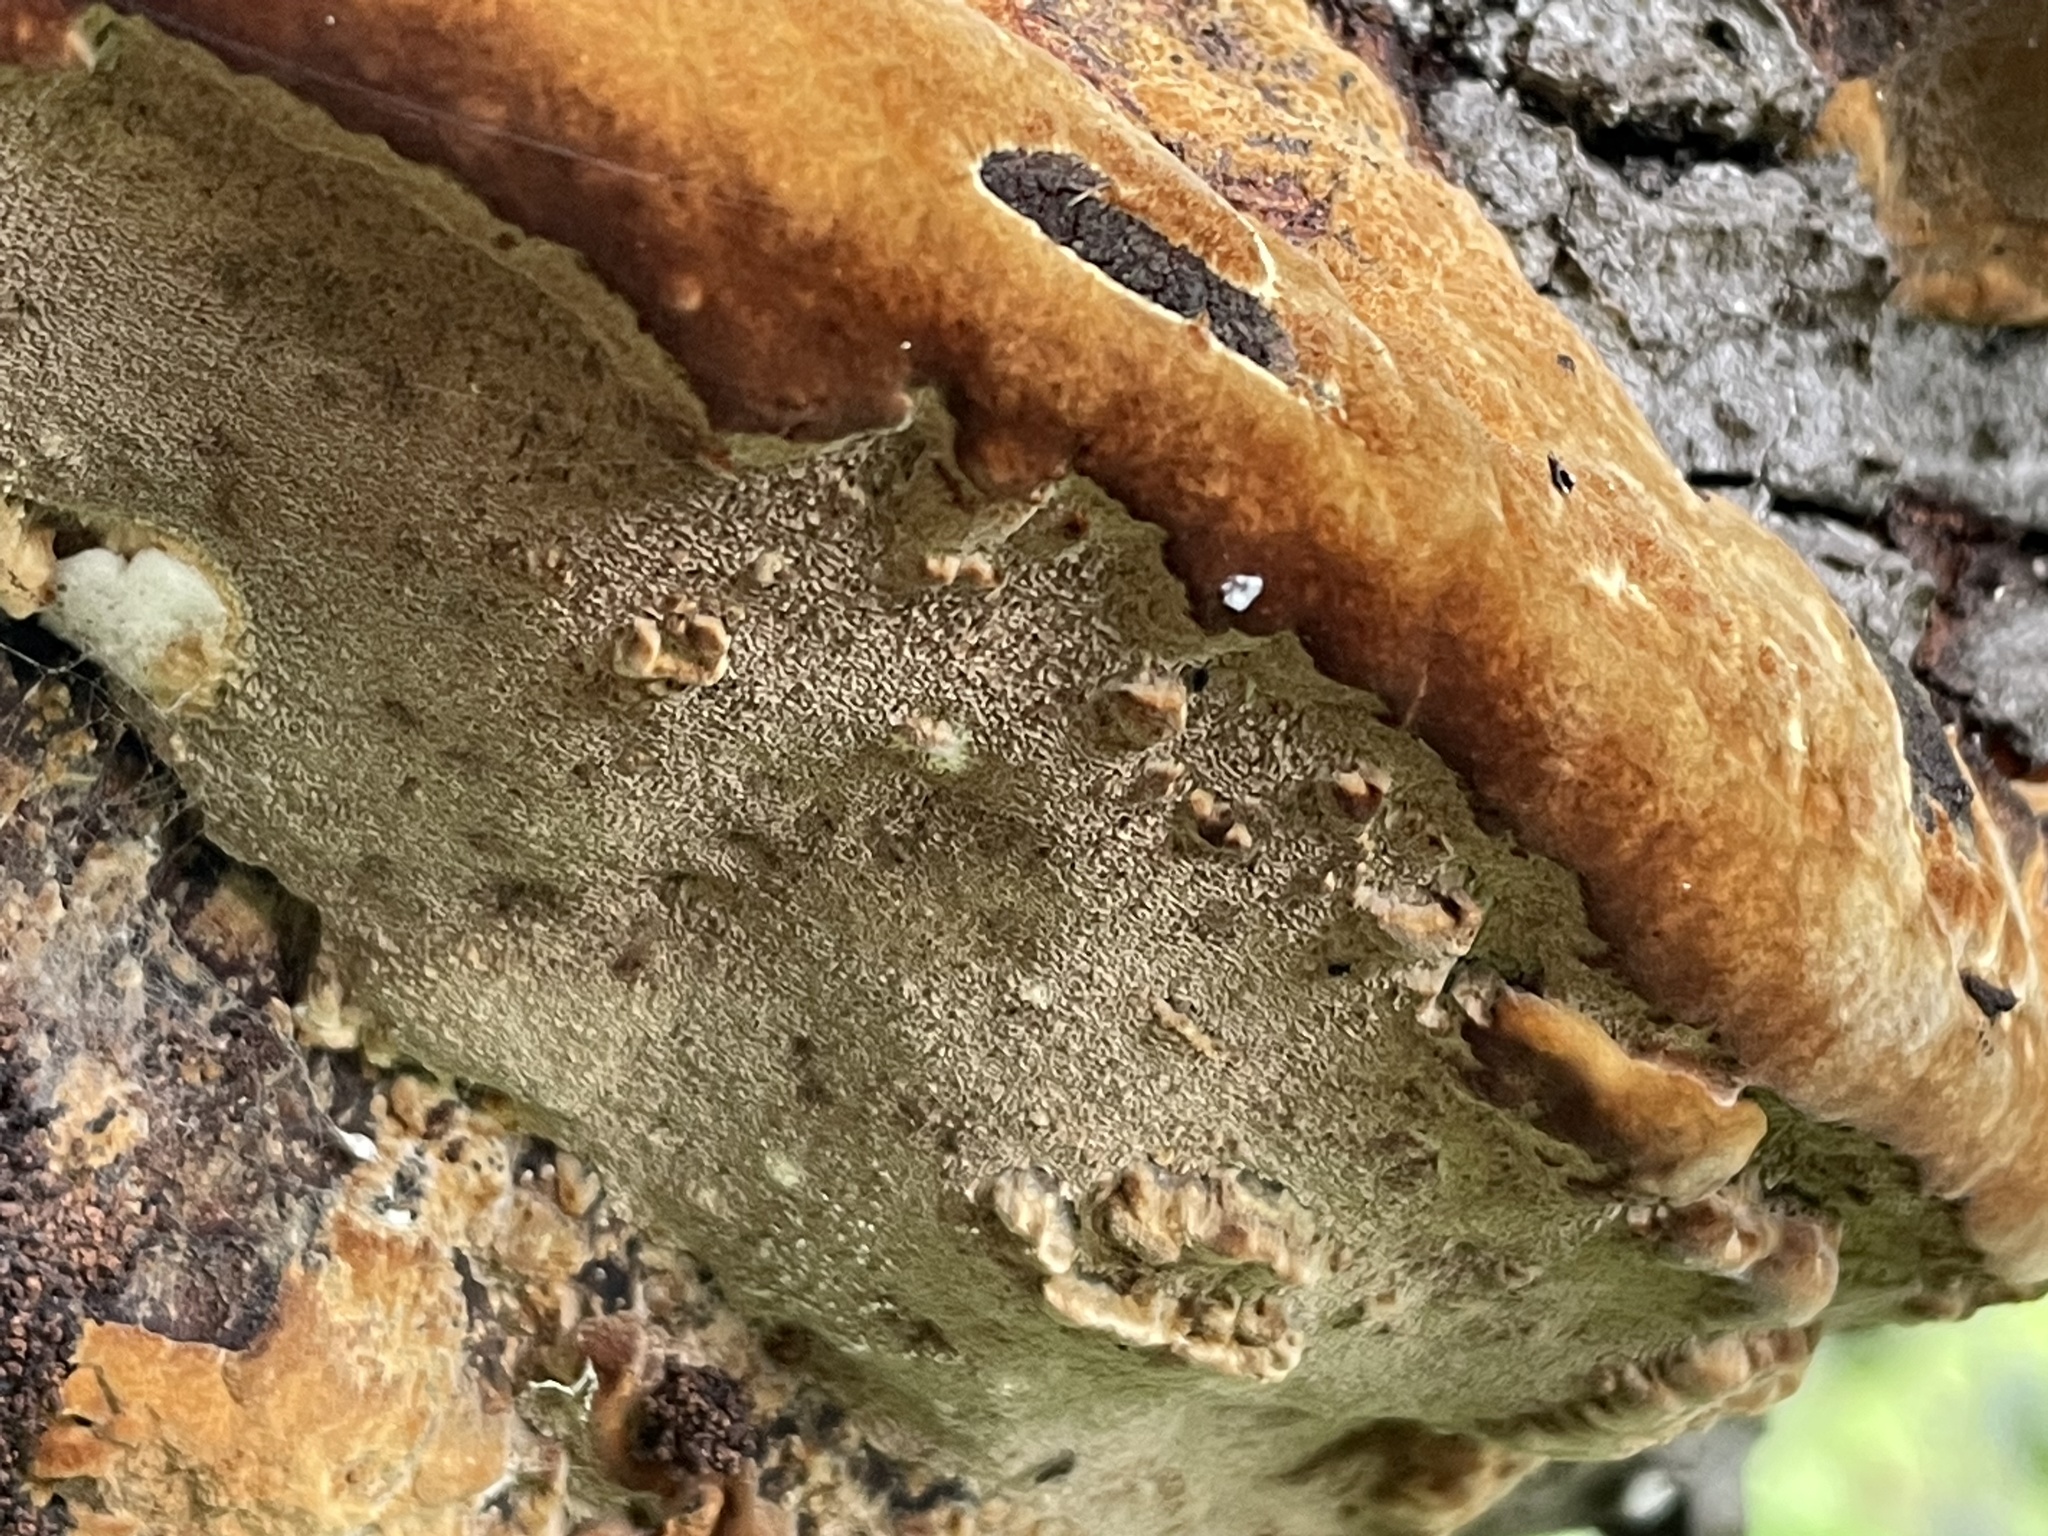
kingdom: Fungi
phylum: Basidiomycota
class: Agaricomycetes
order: Hymenochaetales
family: Hymenochaetaceae
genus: Phellinus
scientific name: Phellinus gilvus
